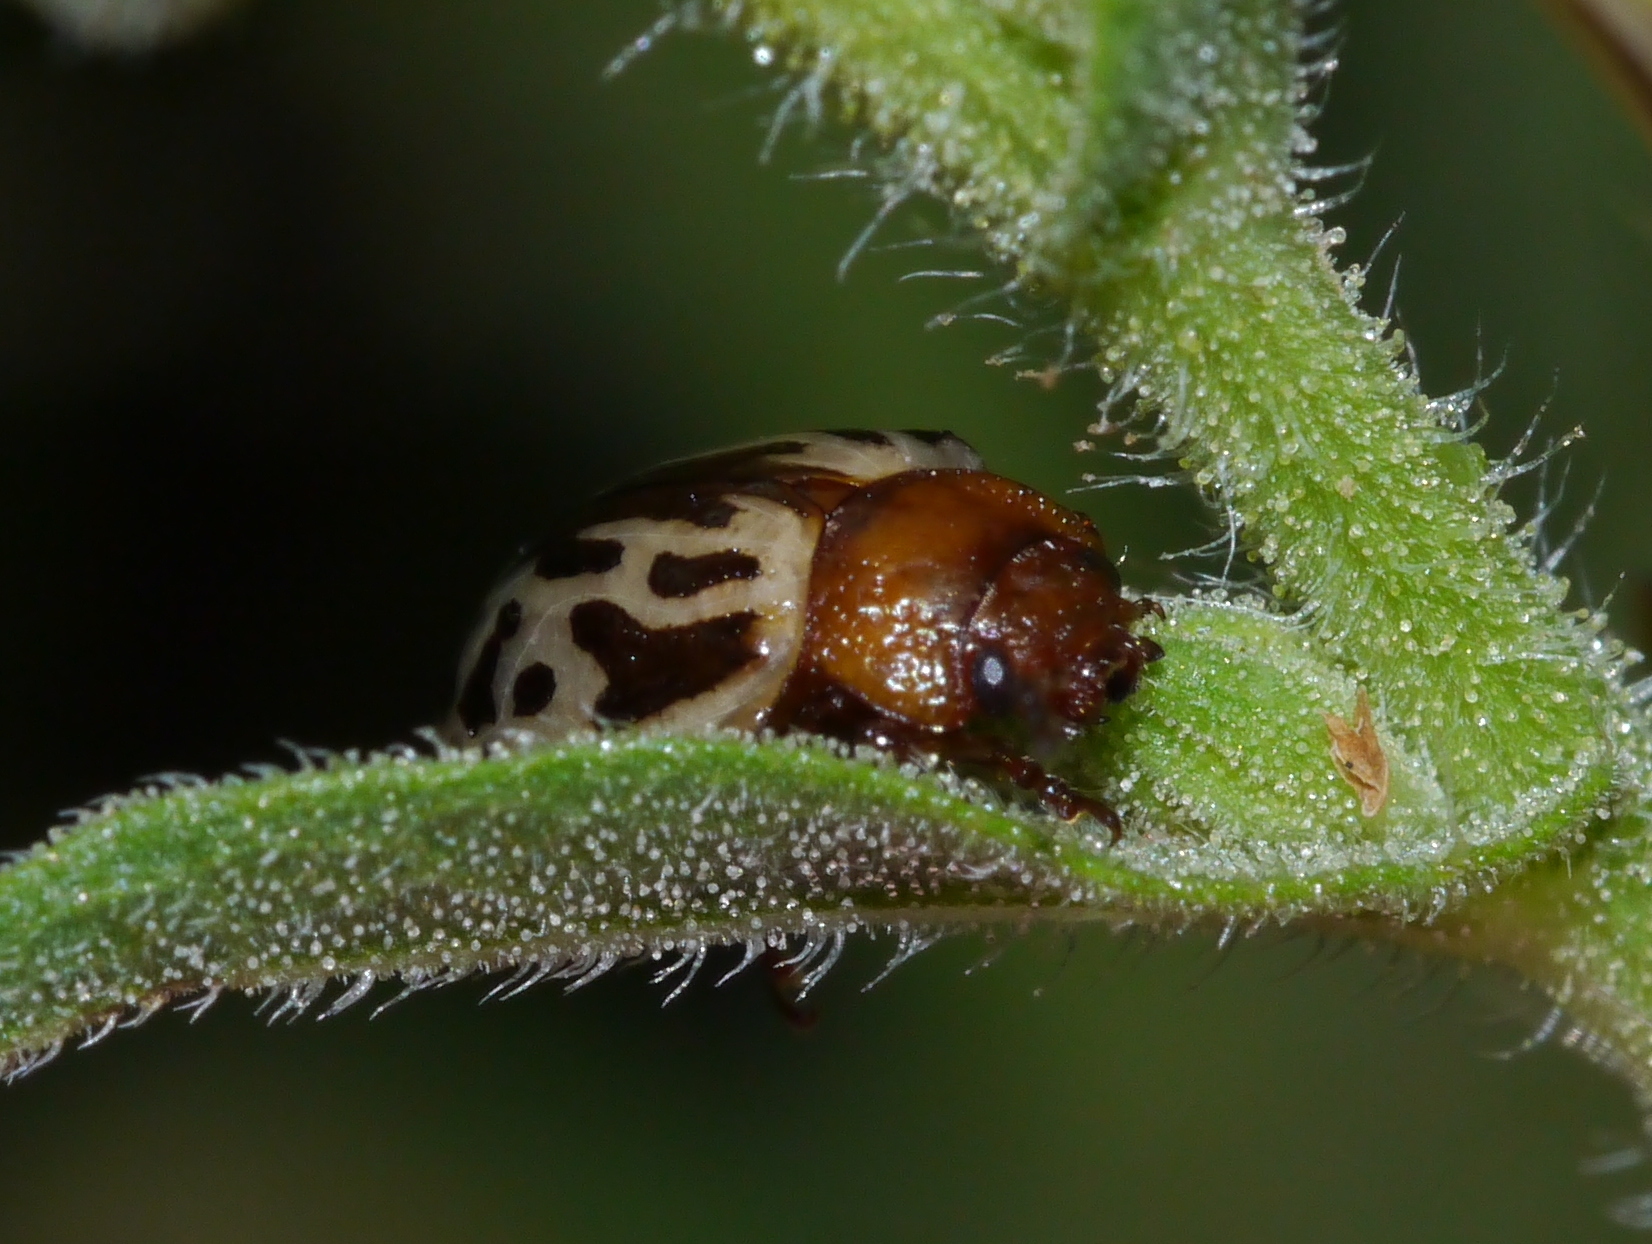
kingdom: Animalia
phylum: Arthropoda
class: Insecta
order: Coleoptera
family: Chrysomelidae
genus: Calligrapha
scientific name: Calligrapha
